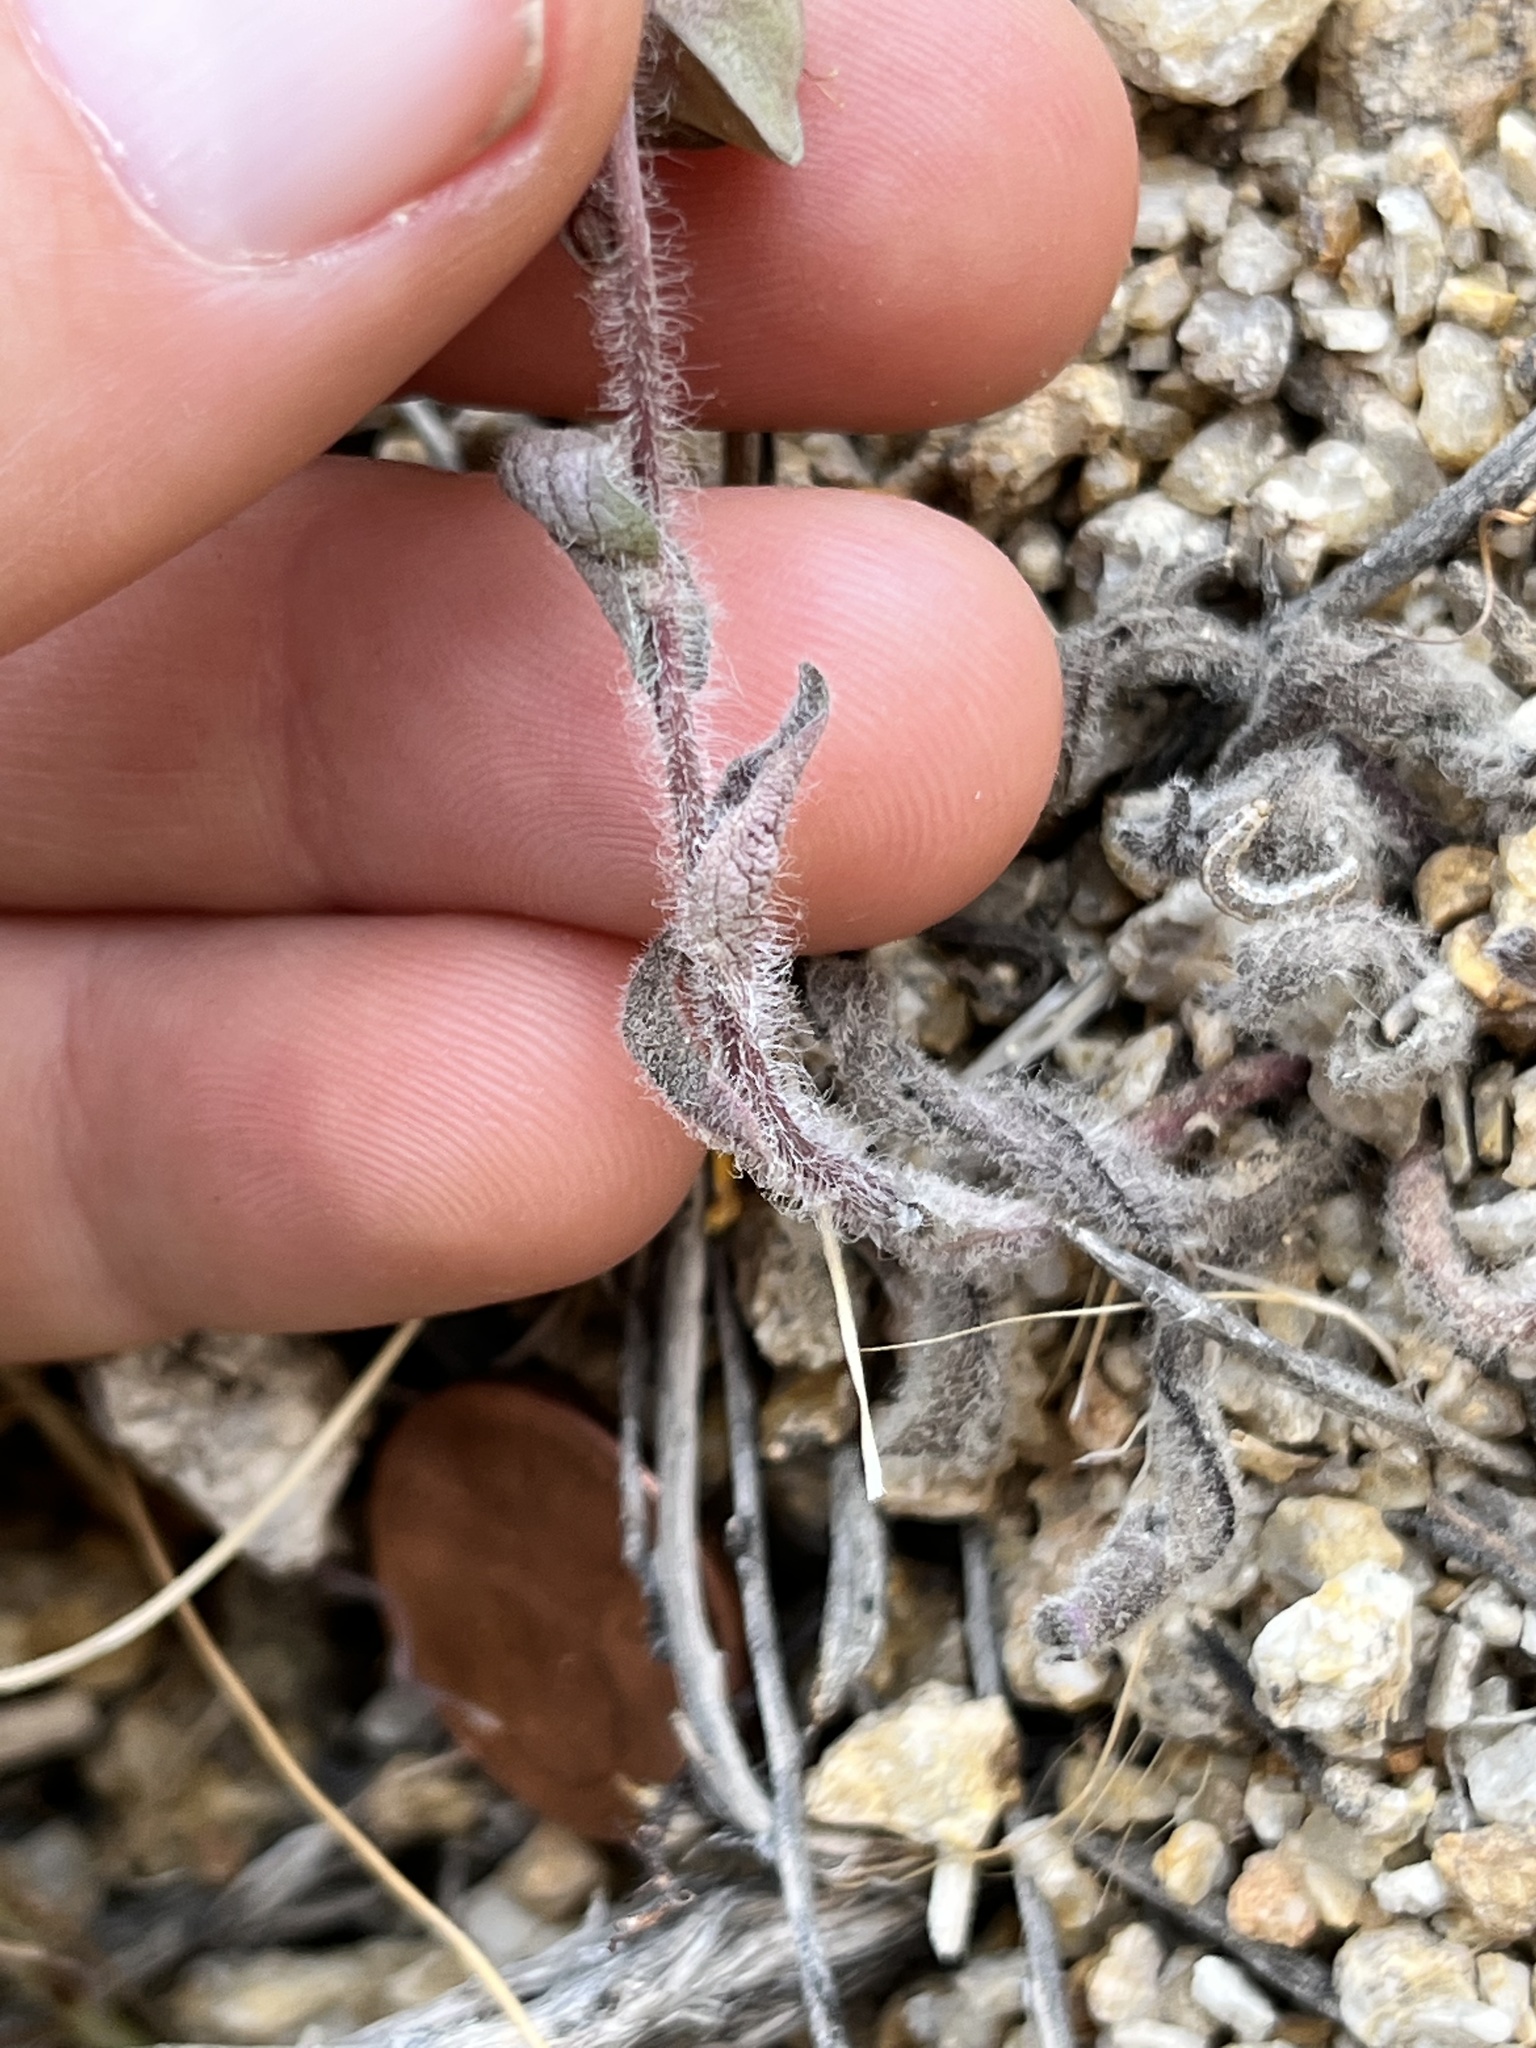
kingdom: Plantae
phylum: Tracheophyta
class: Magnoliopsida
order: Boraginales
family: Hydrophyllaceae
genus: Tricardia
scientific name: Tricardia watsonii
